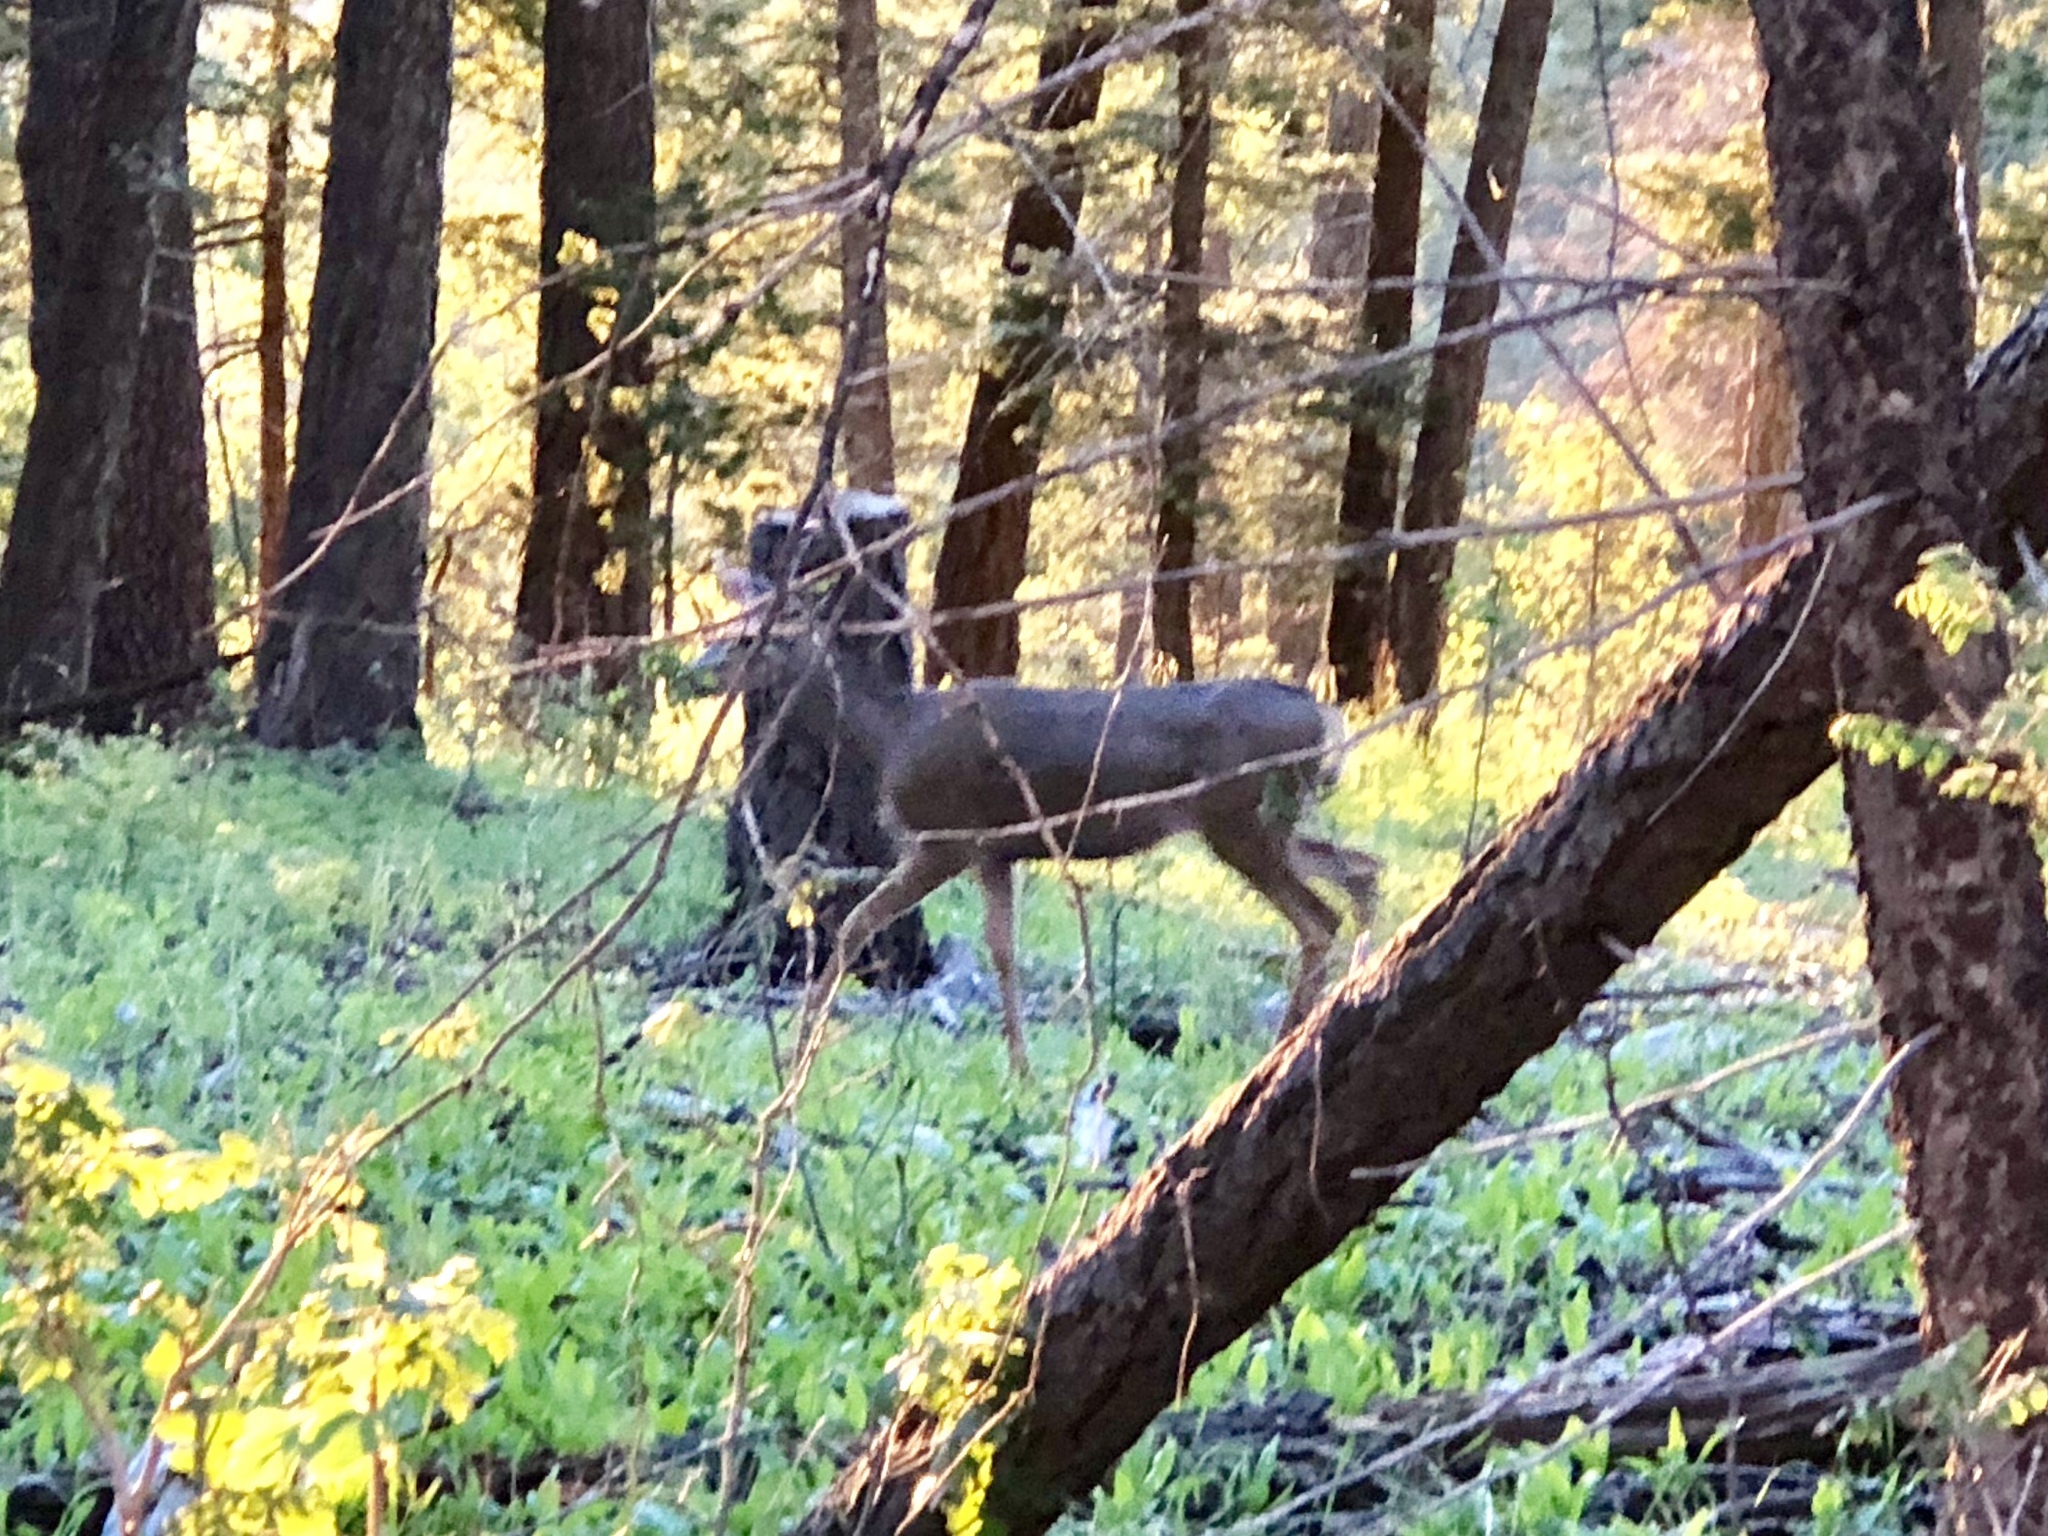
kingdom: Animalia
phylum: Chordata
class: Mammalia
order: Artiodactyla
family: Cervidae
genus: Odocoileus
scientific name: Odocoileus hemionus
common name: Mule deer
